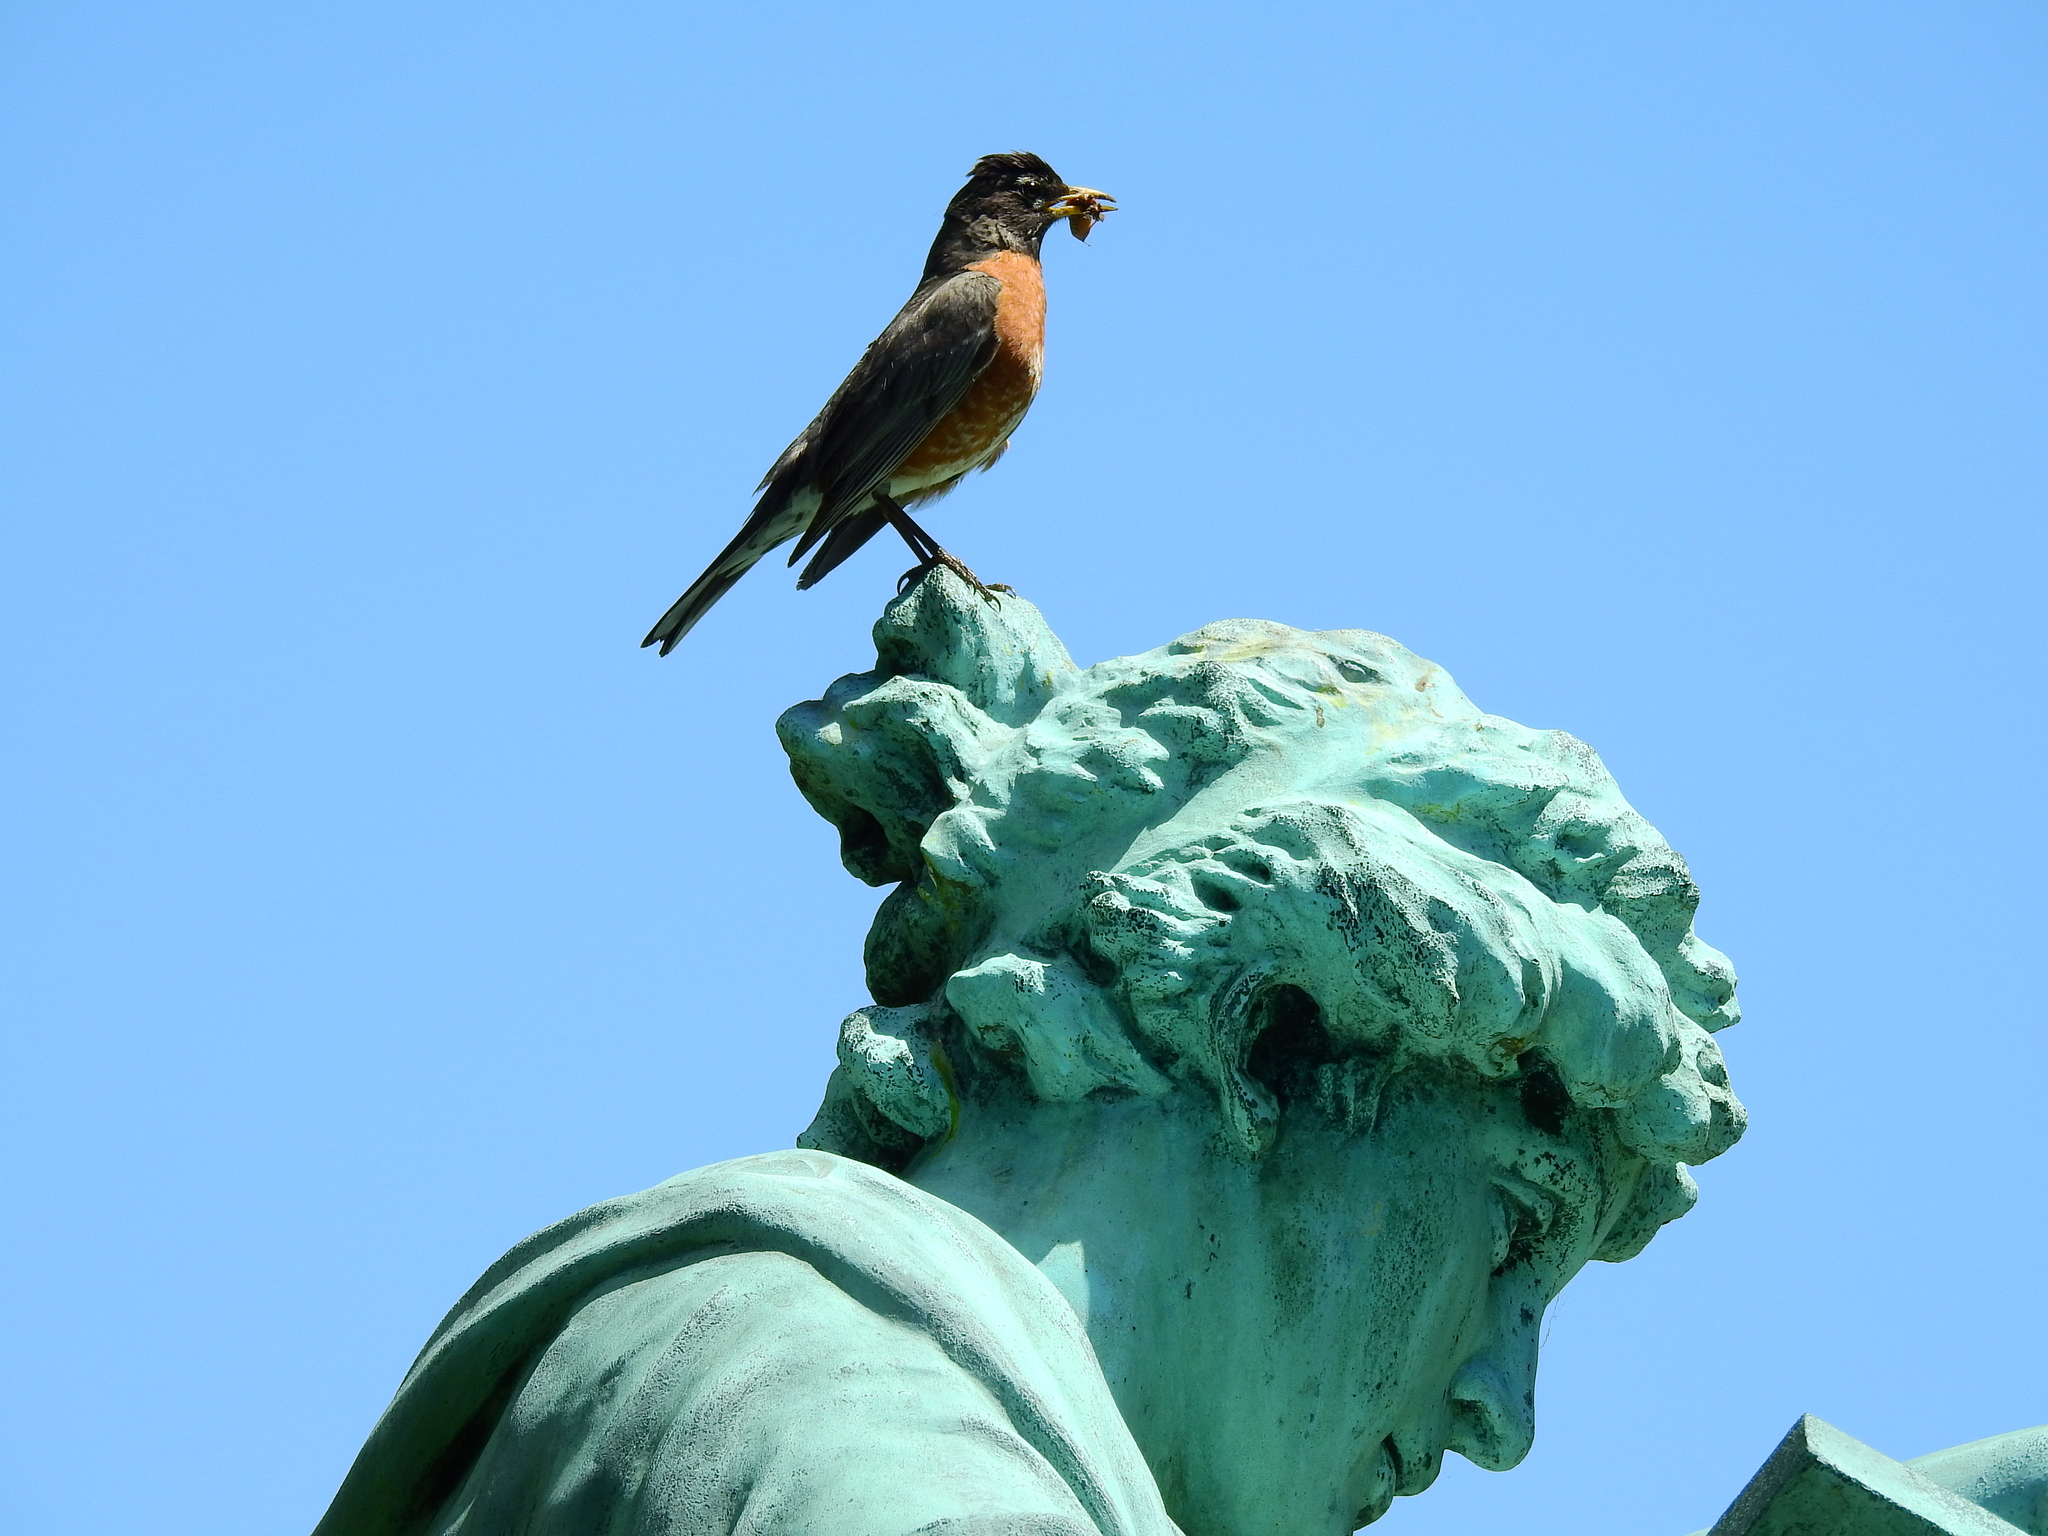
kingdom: Animalia
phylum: Chordata
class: Aves
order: Passeriformes
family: Turdidae
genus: Turdus
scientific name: Turdus migratorius
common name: American robin
